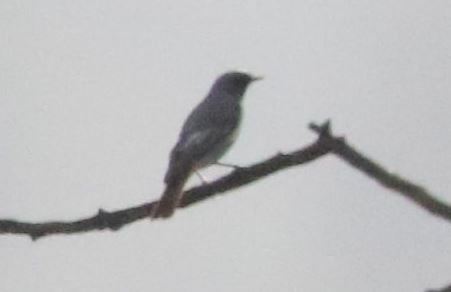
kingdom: Animalia
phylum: Chordata
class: Aves
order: Passeriformes
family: Muscicapidae
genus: Phoenicurus
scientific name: Phoenicurus ochruros
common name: Black redstart
